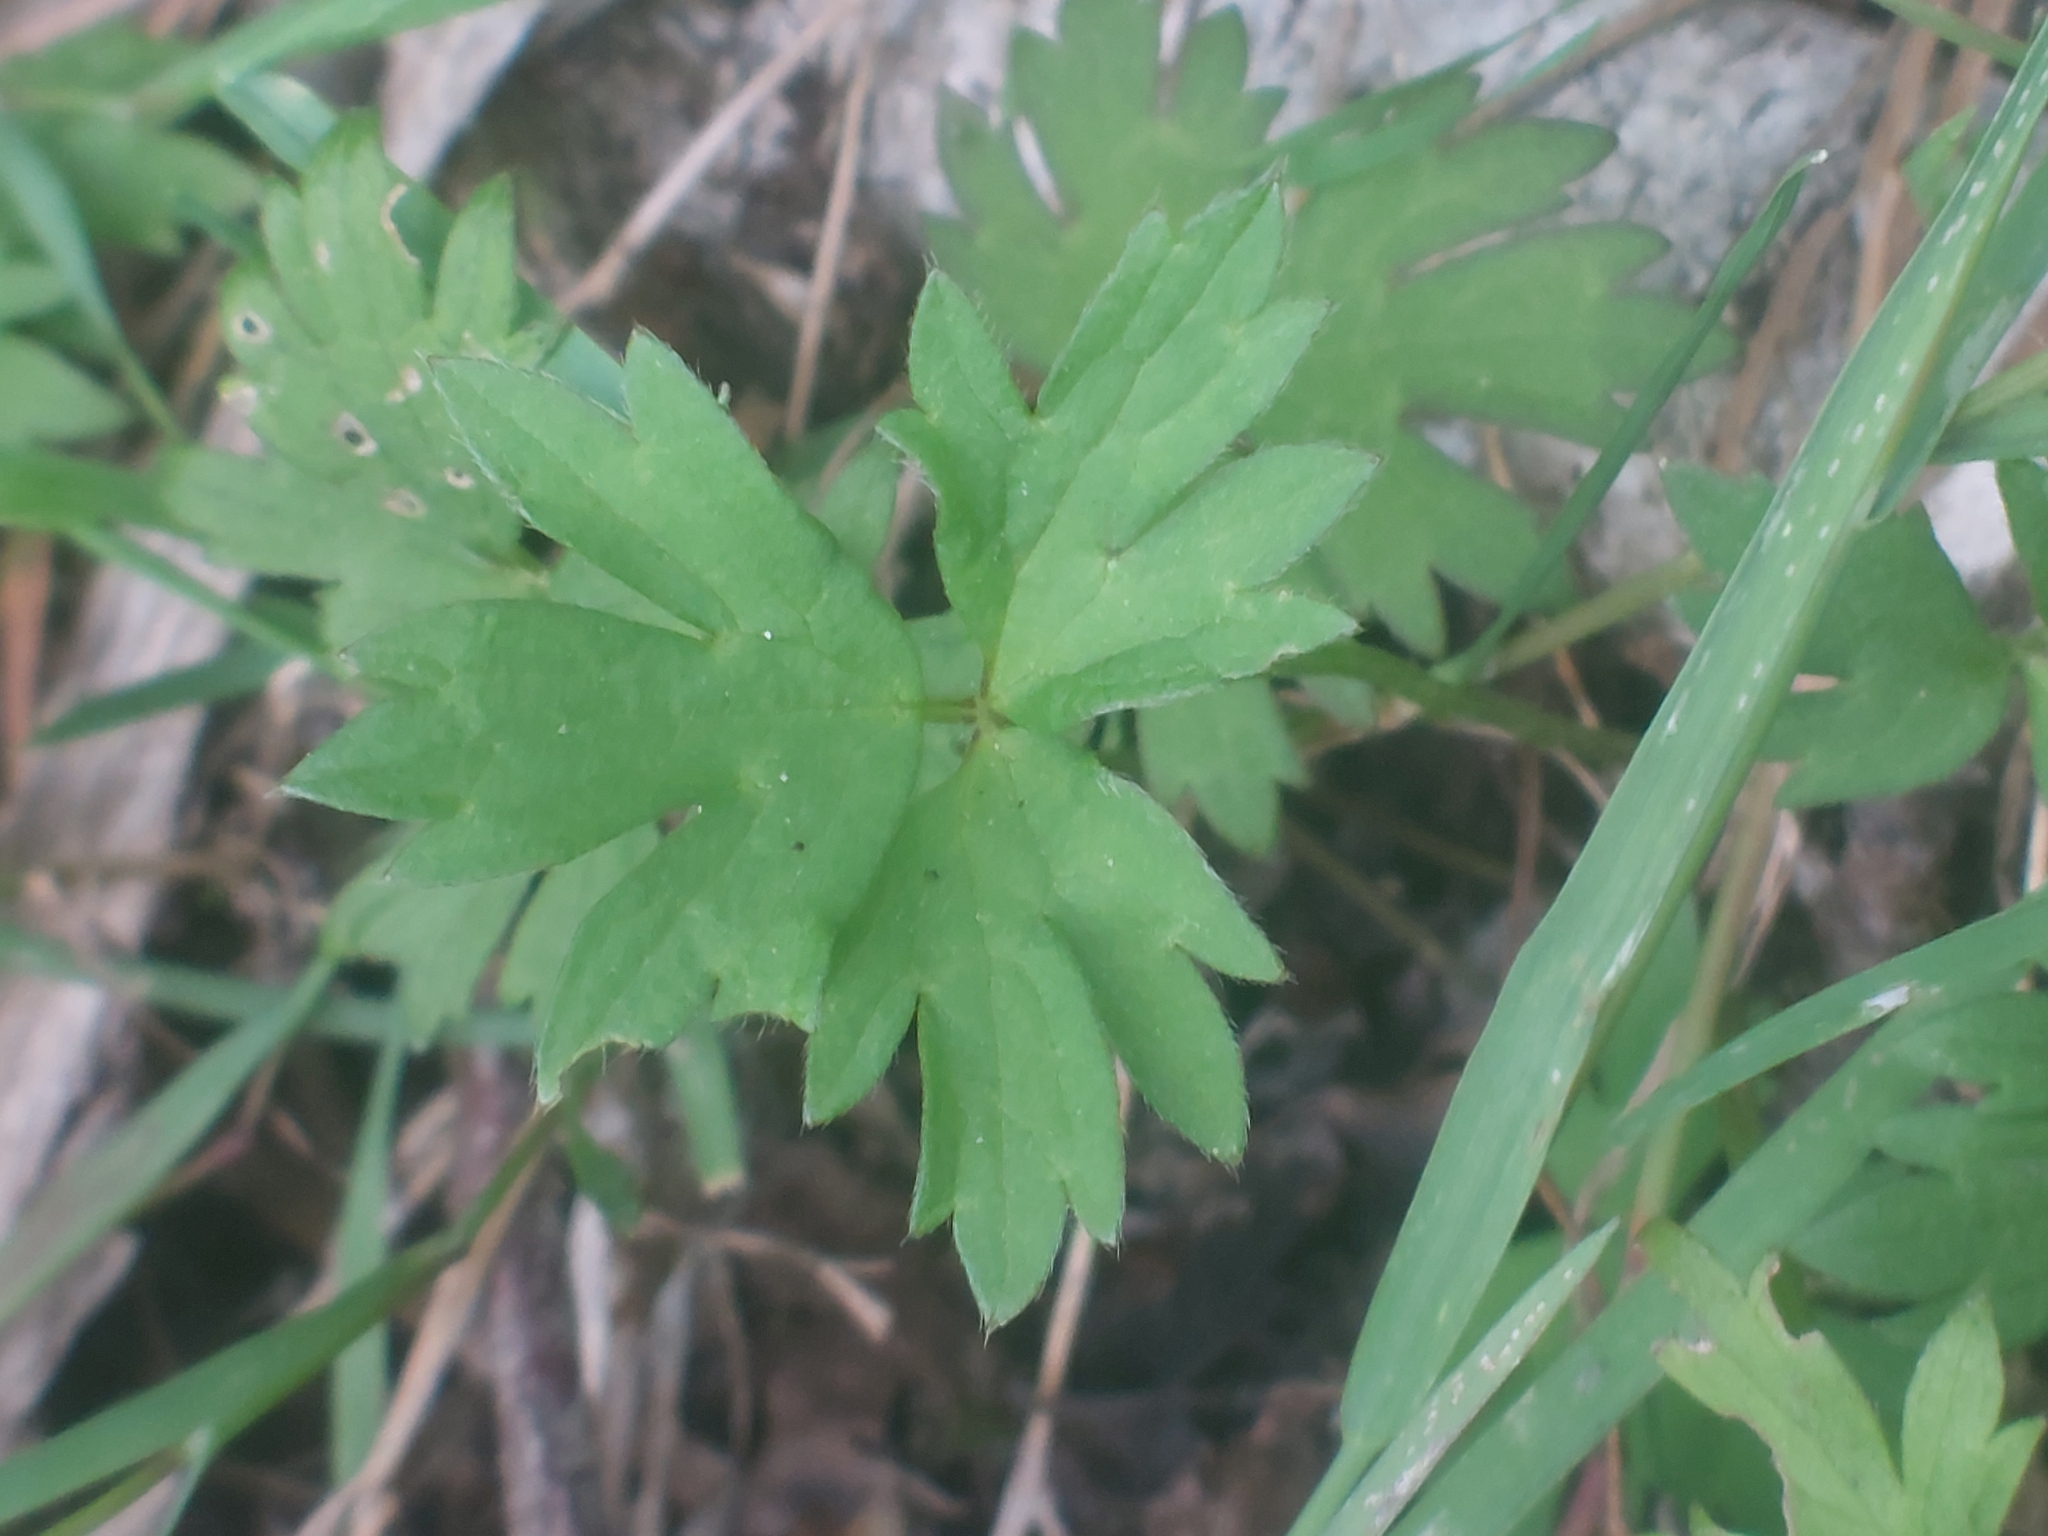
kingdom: Plantae
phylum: Tracheophyta
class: Magnoliopsida
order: Ranunculales
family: Ranunculaceae
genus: Ranunculus
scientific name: Ranunculus repens
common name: Creeping buttercup
